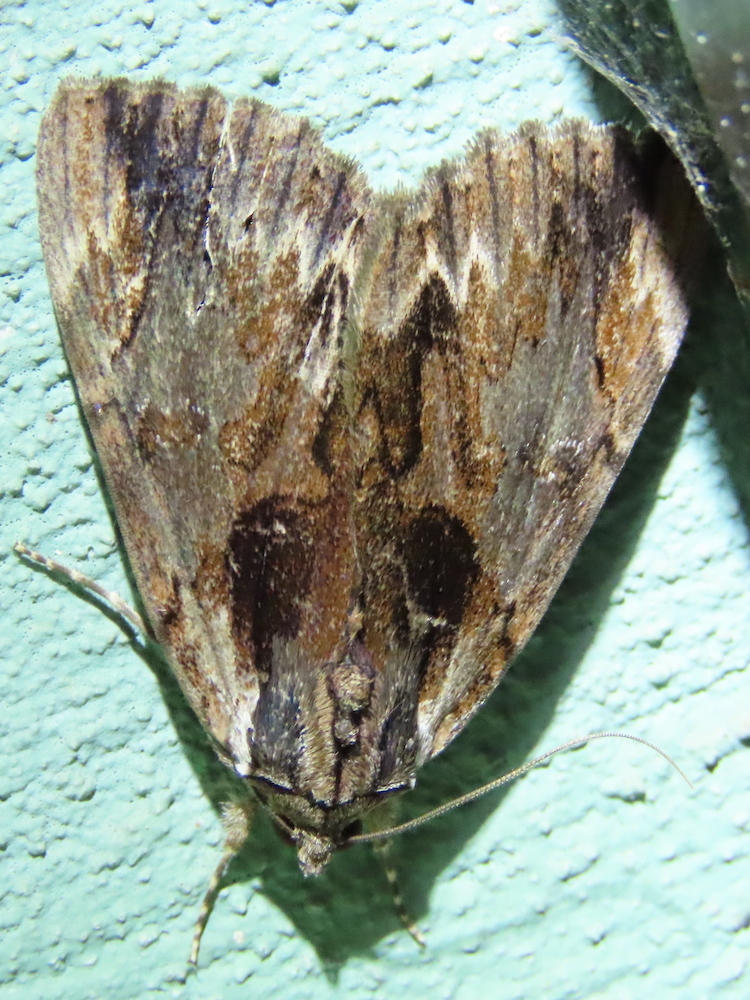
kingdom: Animalia
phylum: Arthropoda
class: Insecta
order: Lepidoptera
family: Erebidae
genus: Catocala
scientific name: Catocala ultronia
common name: Ultronia underwing
